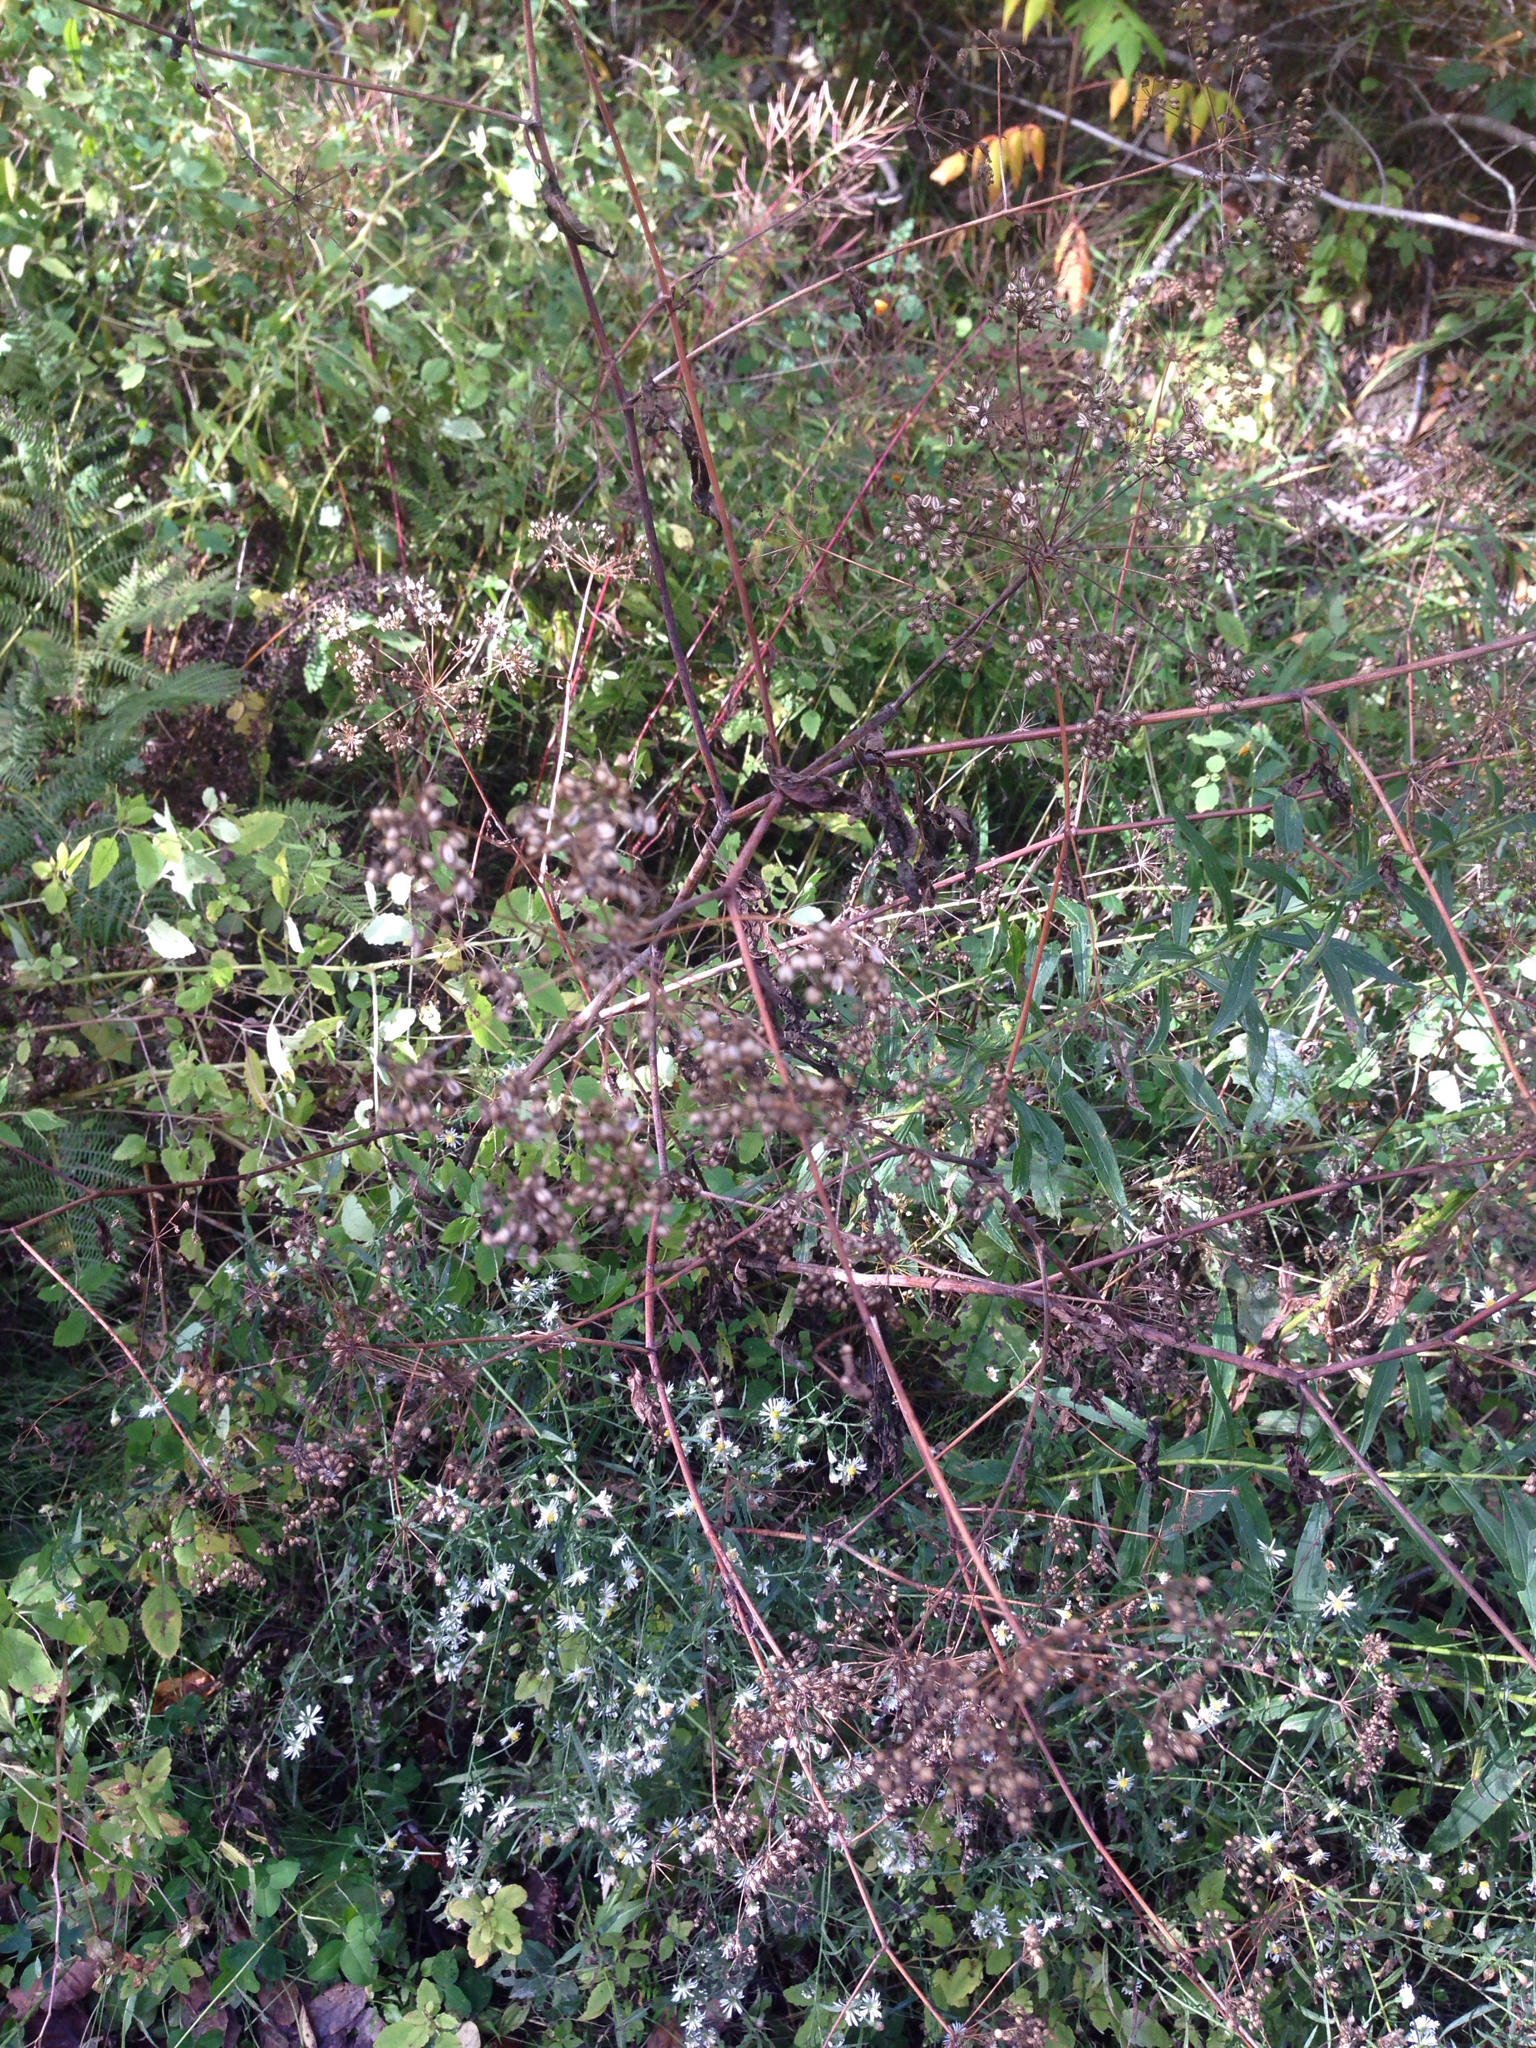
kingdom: Plantae
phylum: Tracheophyta
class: Magnoliopsida
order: Apiales
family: Apiaceae
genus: Pastinaca
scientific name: Pastinaca sativa
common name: Wild parsnip
